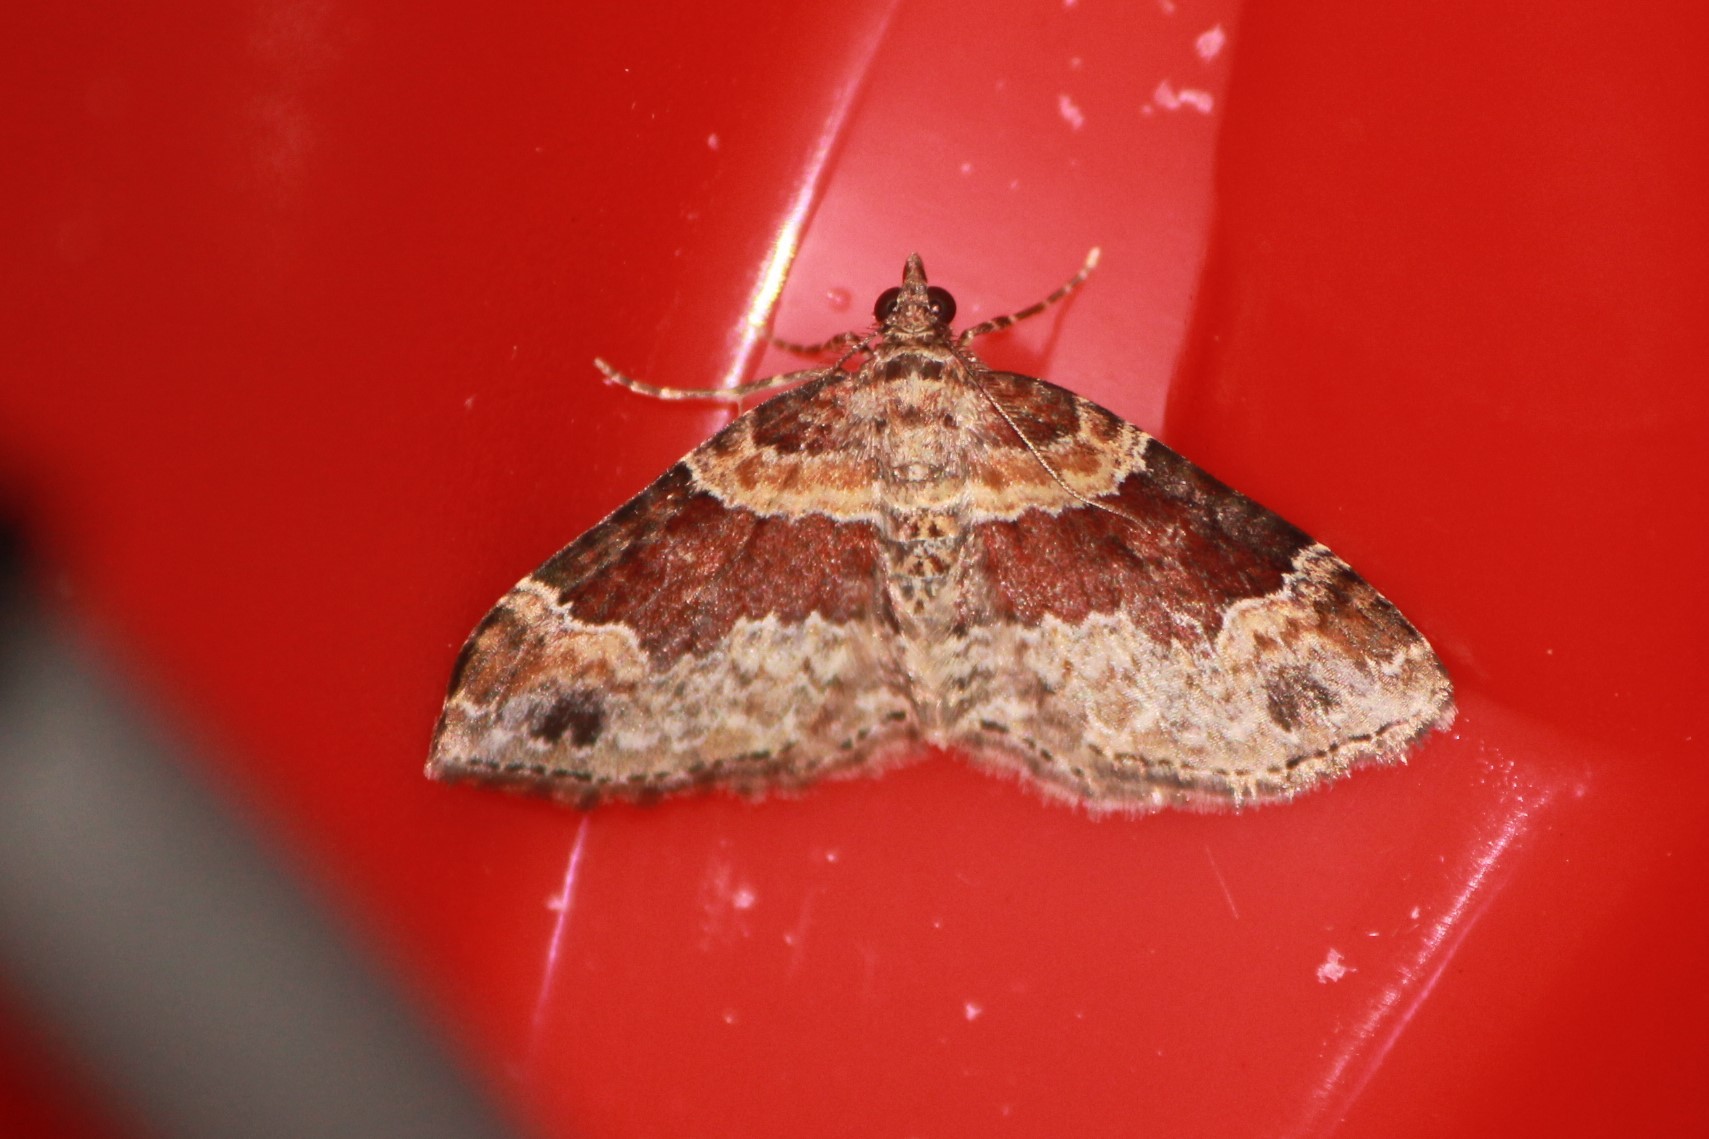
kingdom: Animalia
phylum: Arthropoda
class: Insecta
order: Lepidoptera
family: Geometridae
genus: Xanthorhoe
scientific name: Xanthorhoe ferrugata
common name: Dark-barred twin-spot carpet
